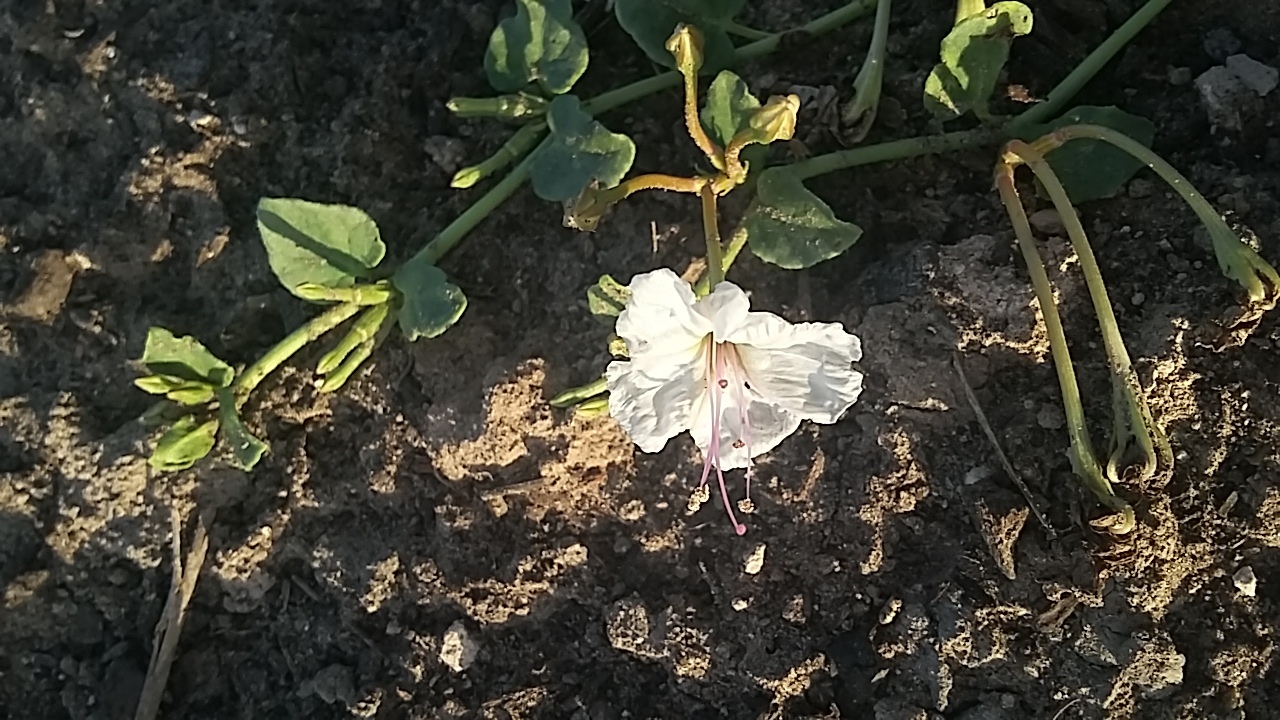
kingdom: Plantae
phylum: Tracheophyta
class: Magnoliopsida
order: Caryophyllales
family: Nyctaginaceae
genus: Acleisanthes
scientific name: Acleisanthes obtusa
